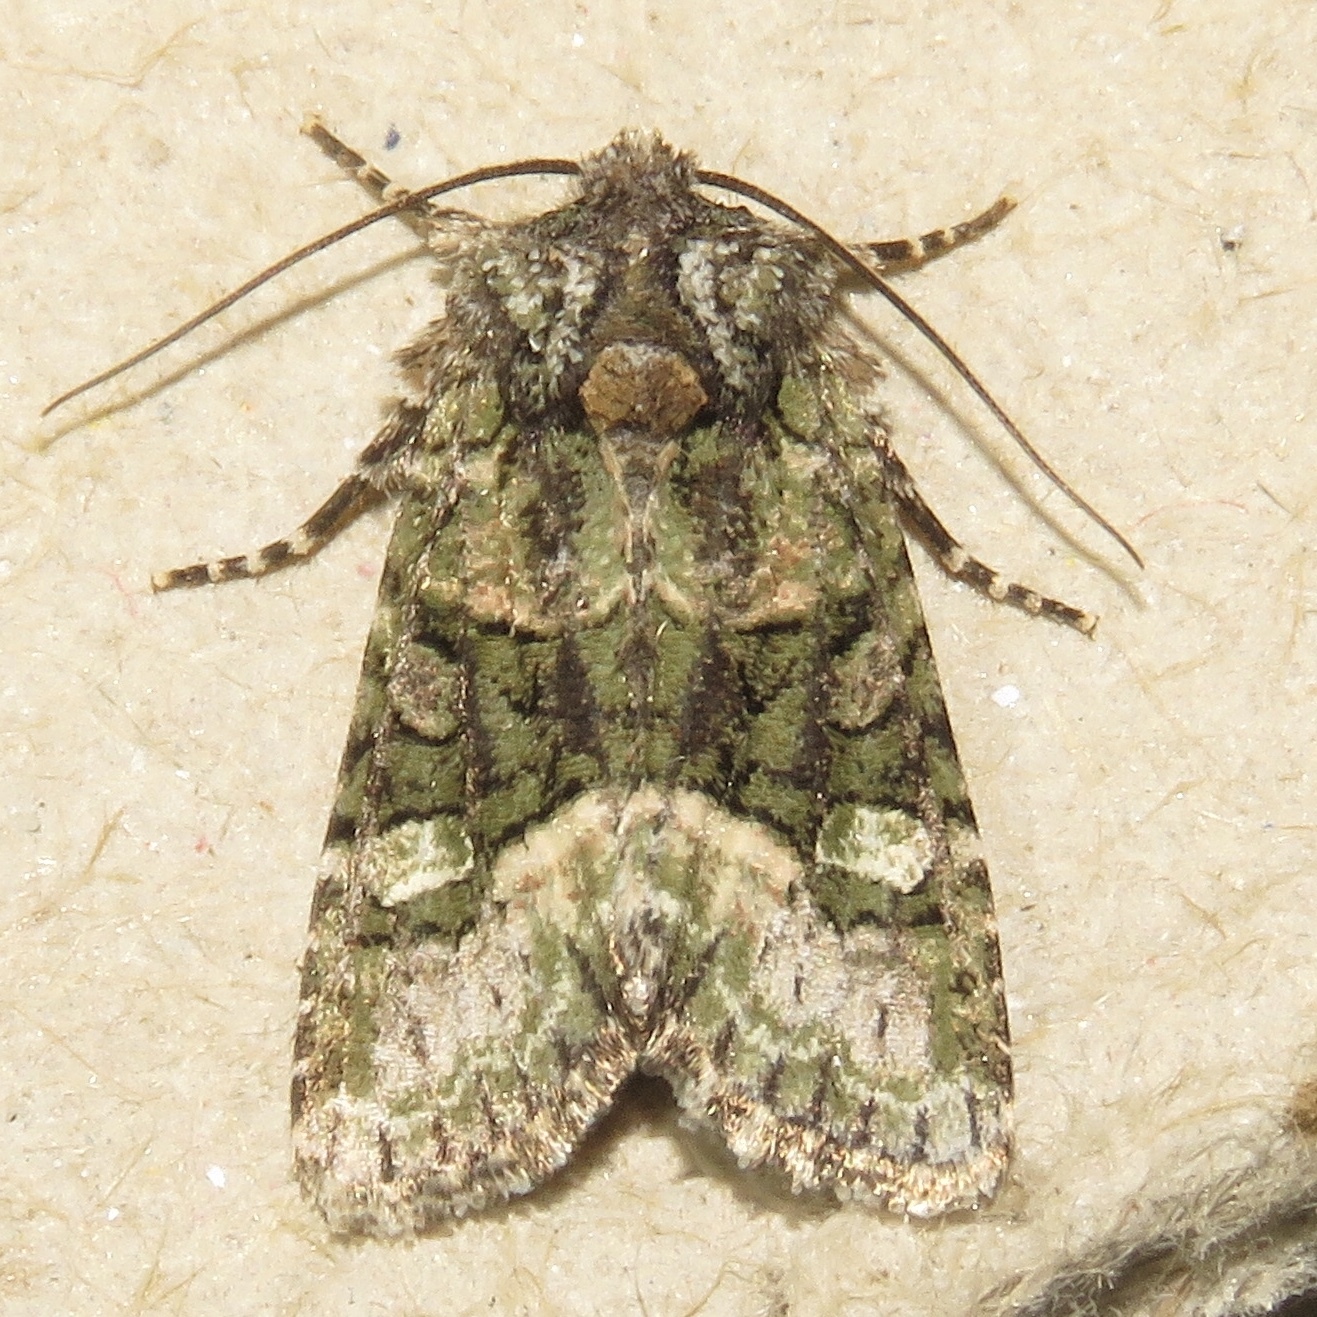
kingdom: Animalia
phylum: Arthropoda
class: Insecta
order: Lepidoptera
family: Noctuidae
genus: Lacinipolia
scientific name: Lacinipolia olivacea
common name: Olive arches moth
